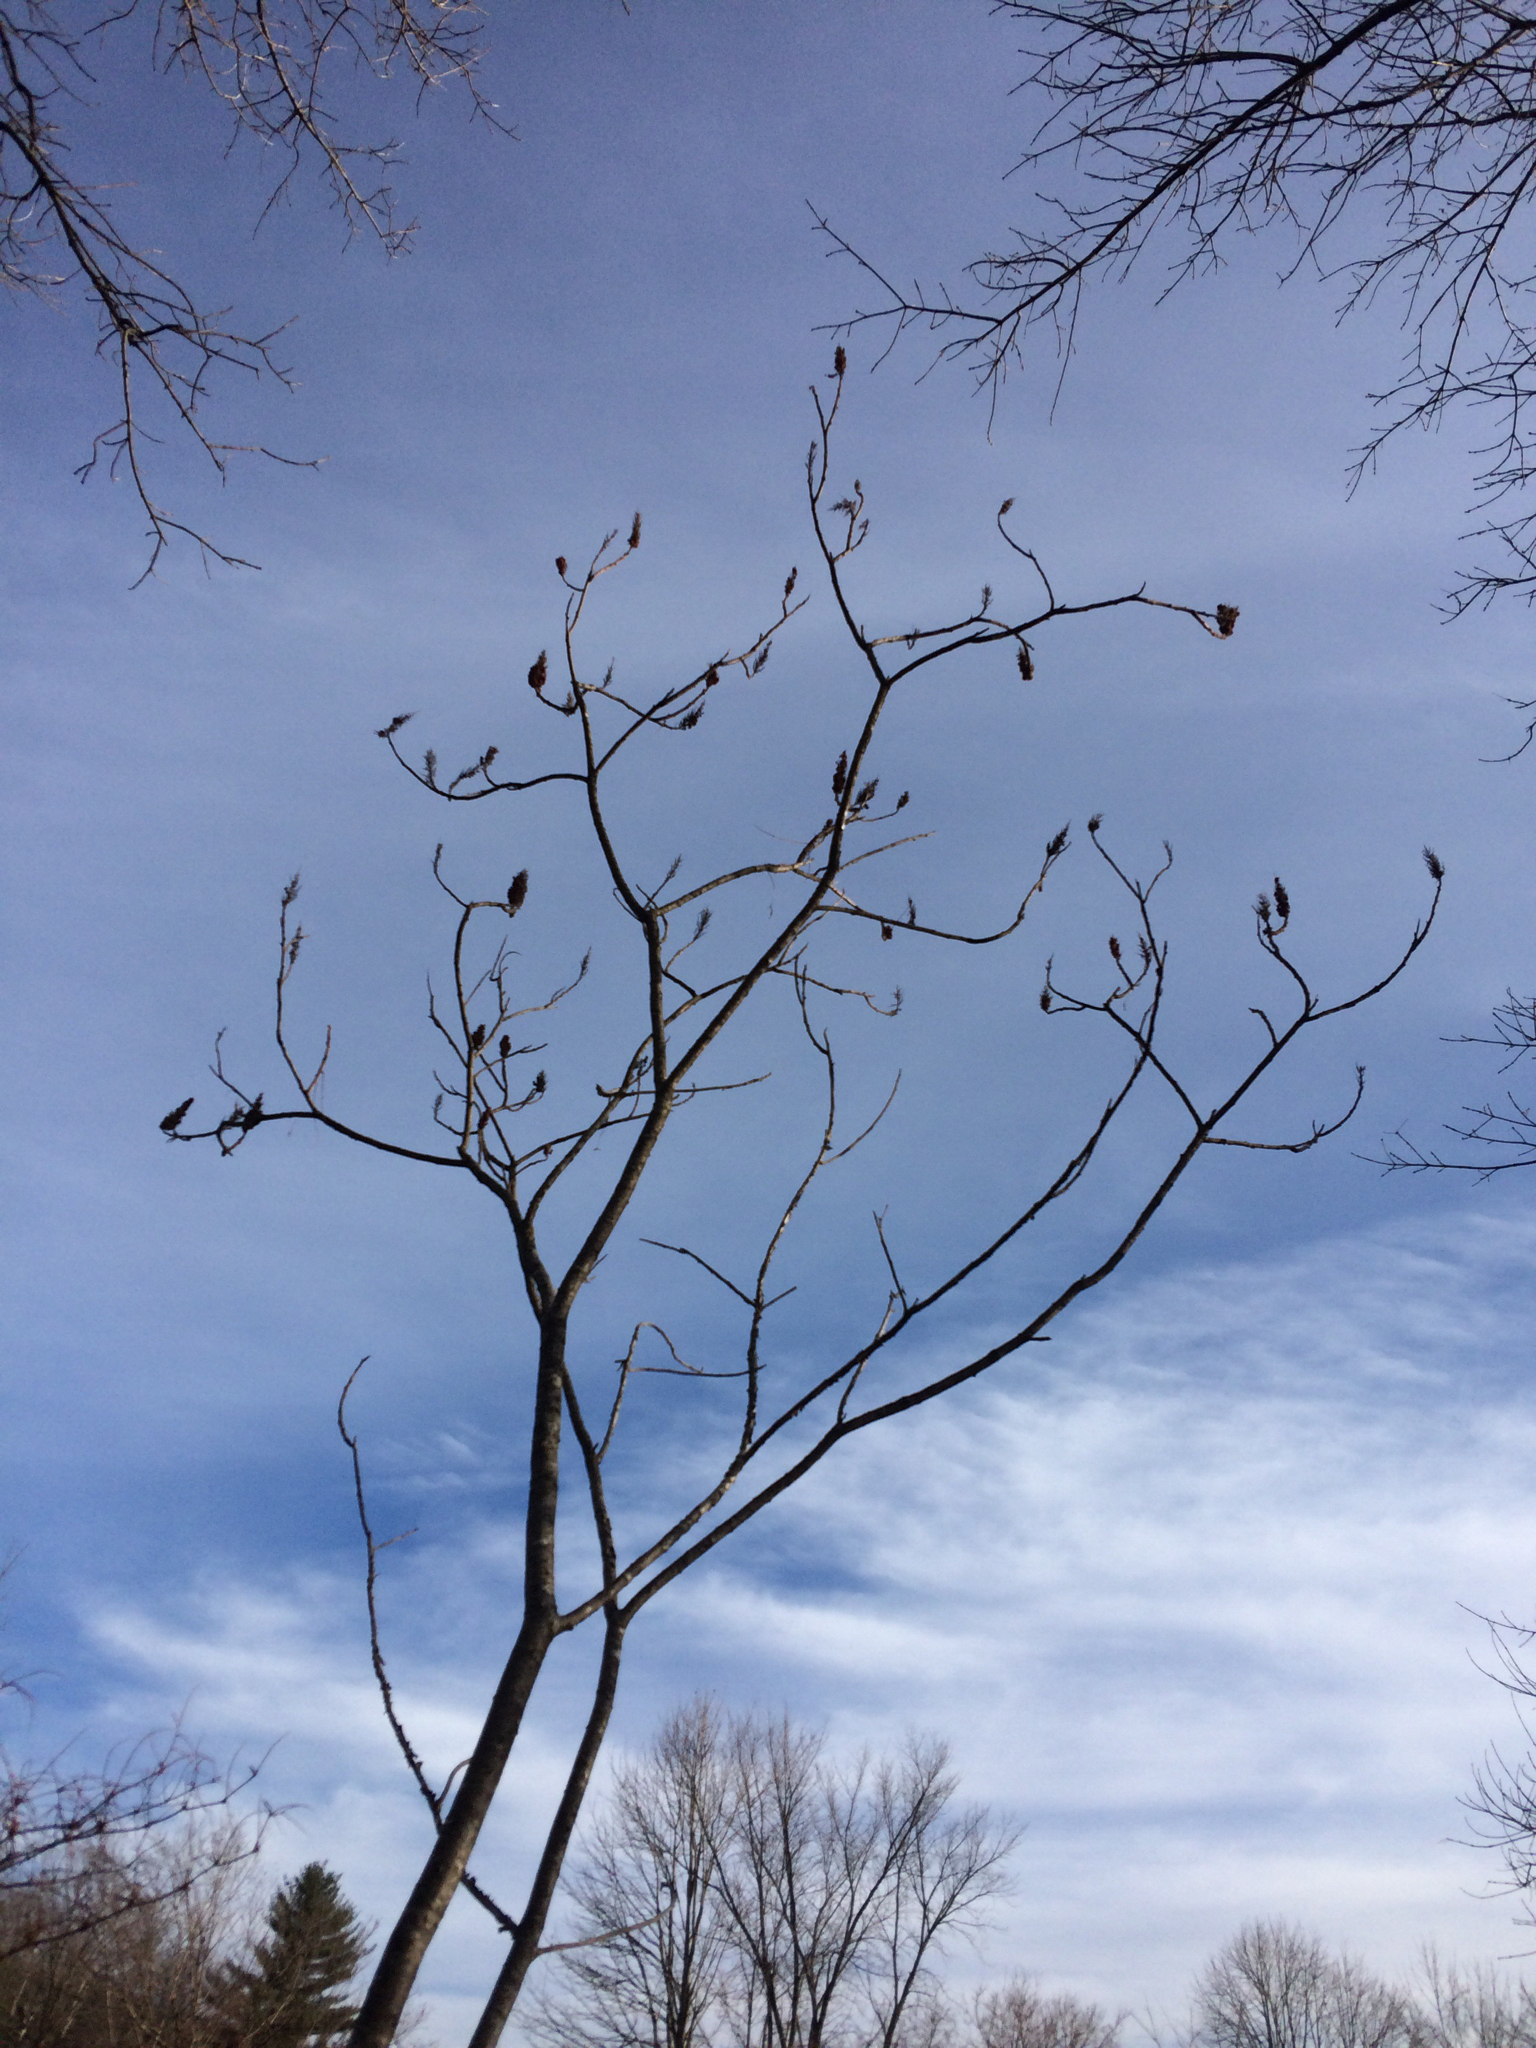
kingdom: Plantae
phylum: Tracheophyta
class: Magnoliopsida
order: Sapindales
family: Anacardiaceae
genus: Rhus
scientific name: Rhus typhina
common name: Staghorn sumac
